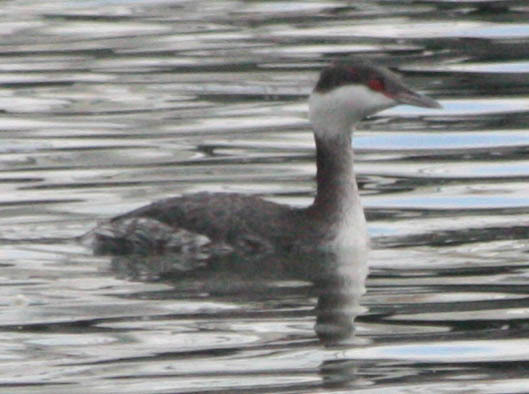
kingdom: Animalia
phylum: Chordata
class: Aves
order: Podicipediformes
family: Podicipedidae
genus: Podiceps
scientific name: Podiceps auritus
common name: Horned grebe
